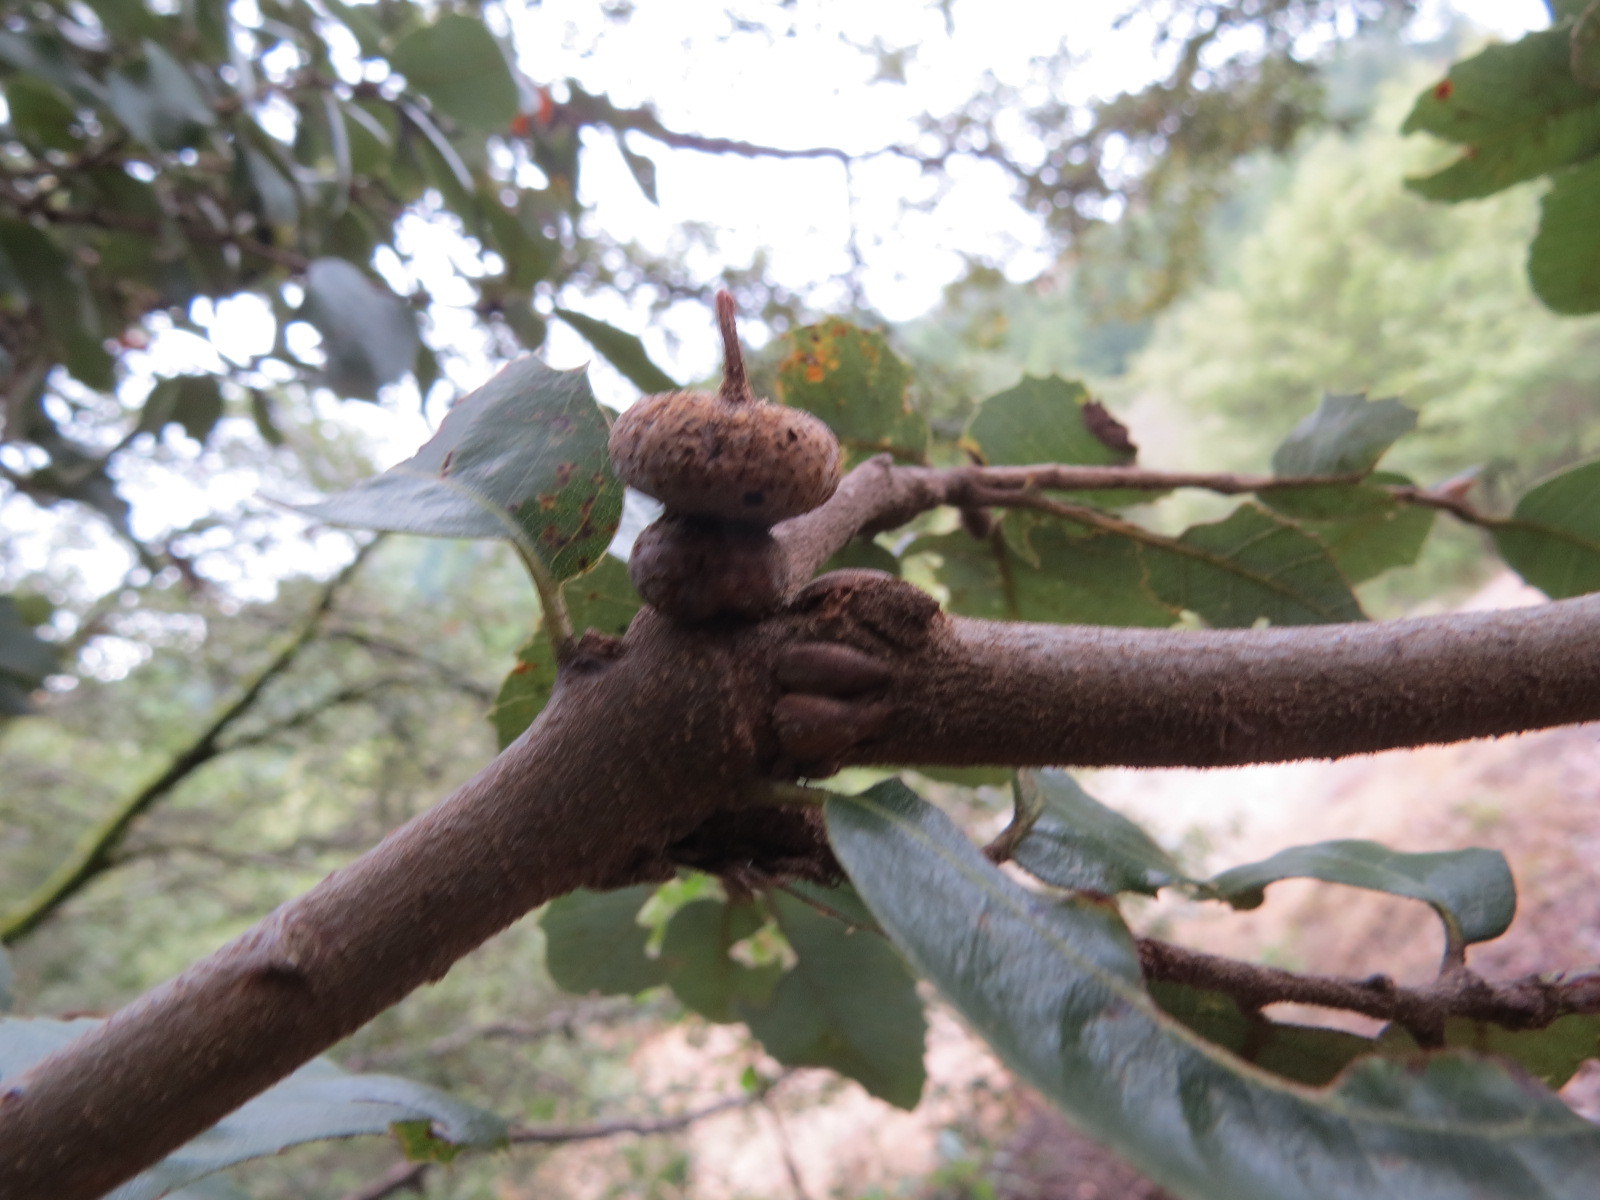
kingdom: Animalia
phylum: Arthropoda
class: Insecta
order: Hymenoptera
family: Cynipidae
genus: Heteroecus
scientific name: Heteroecus
